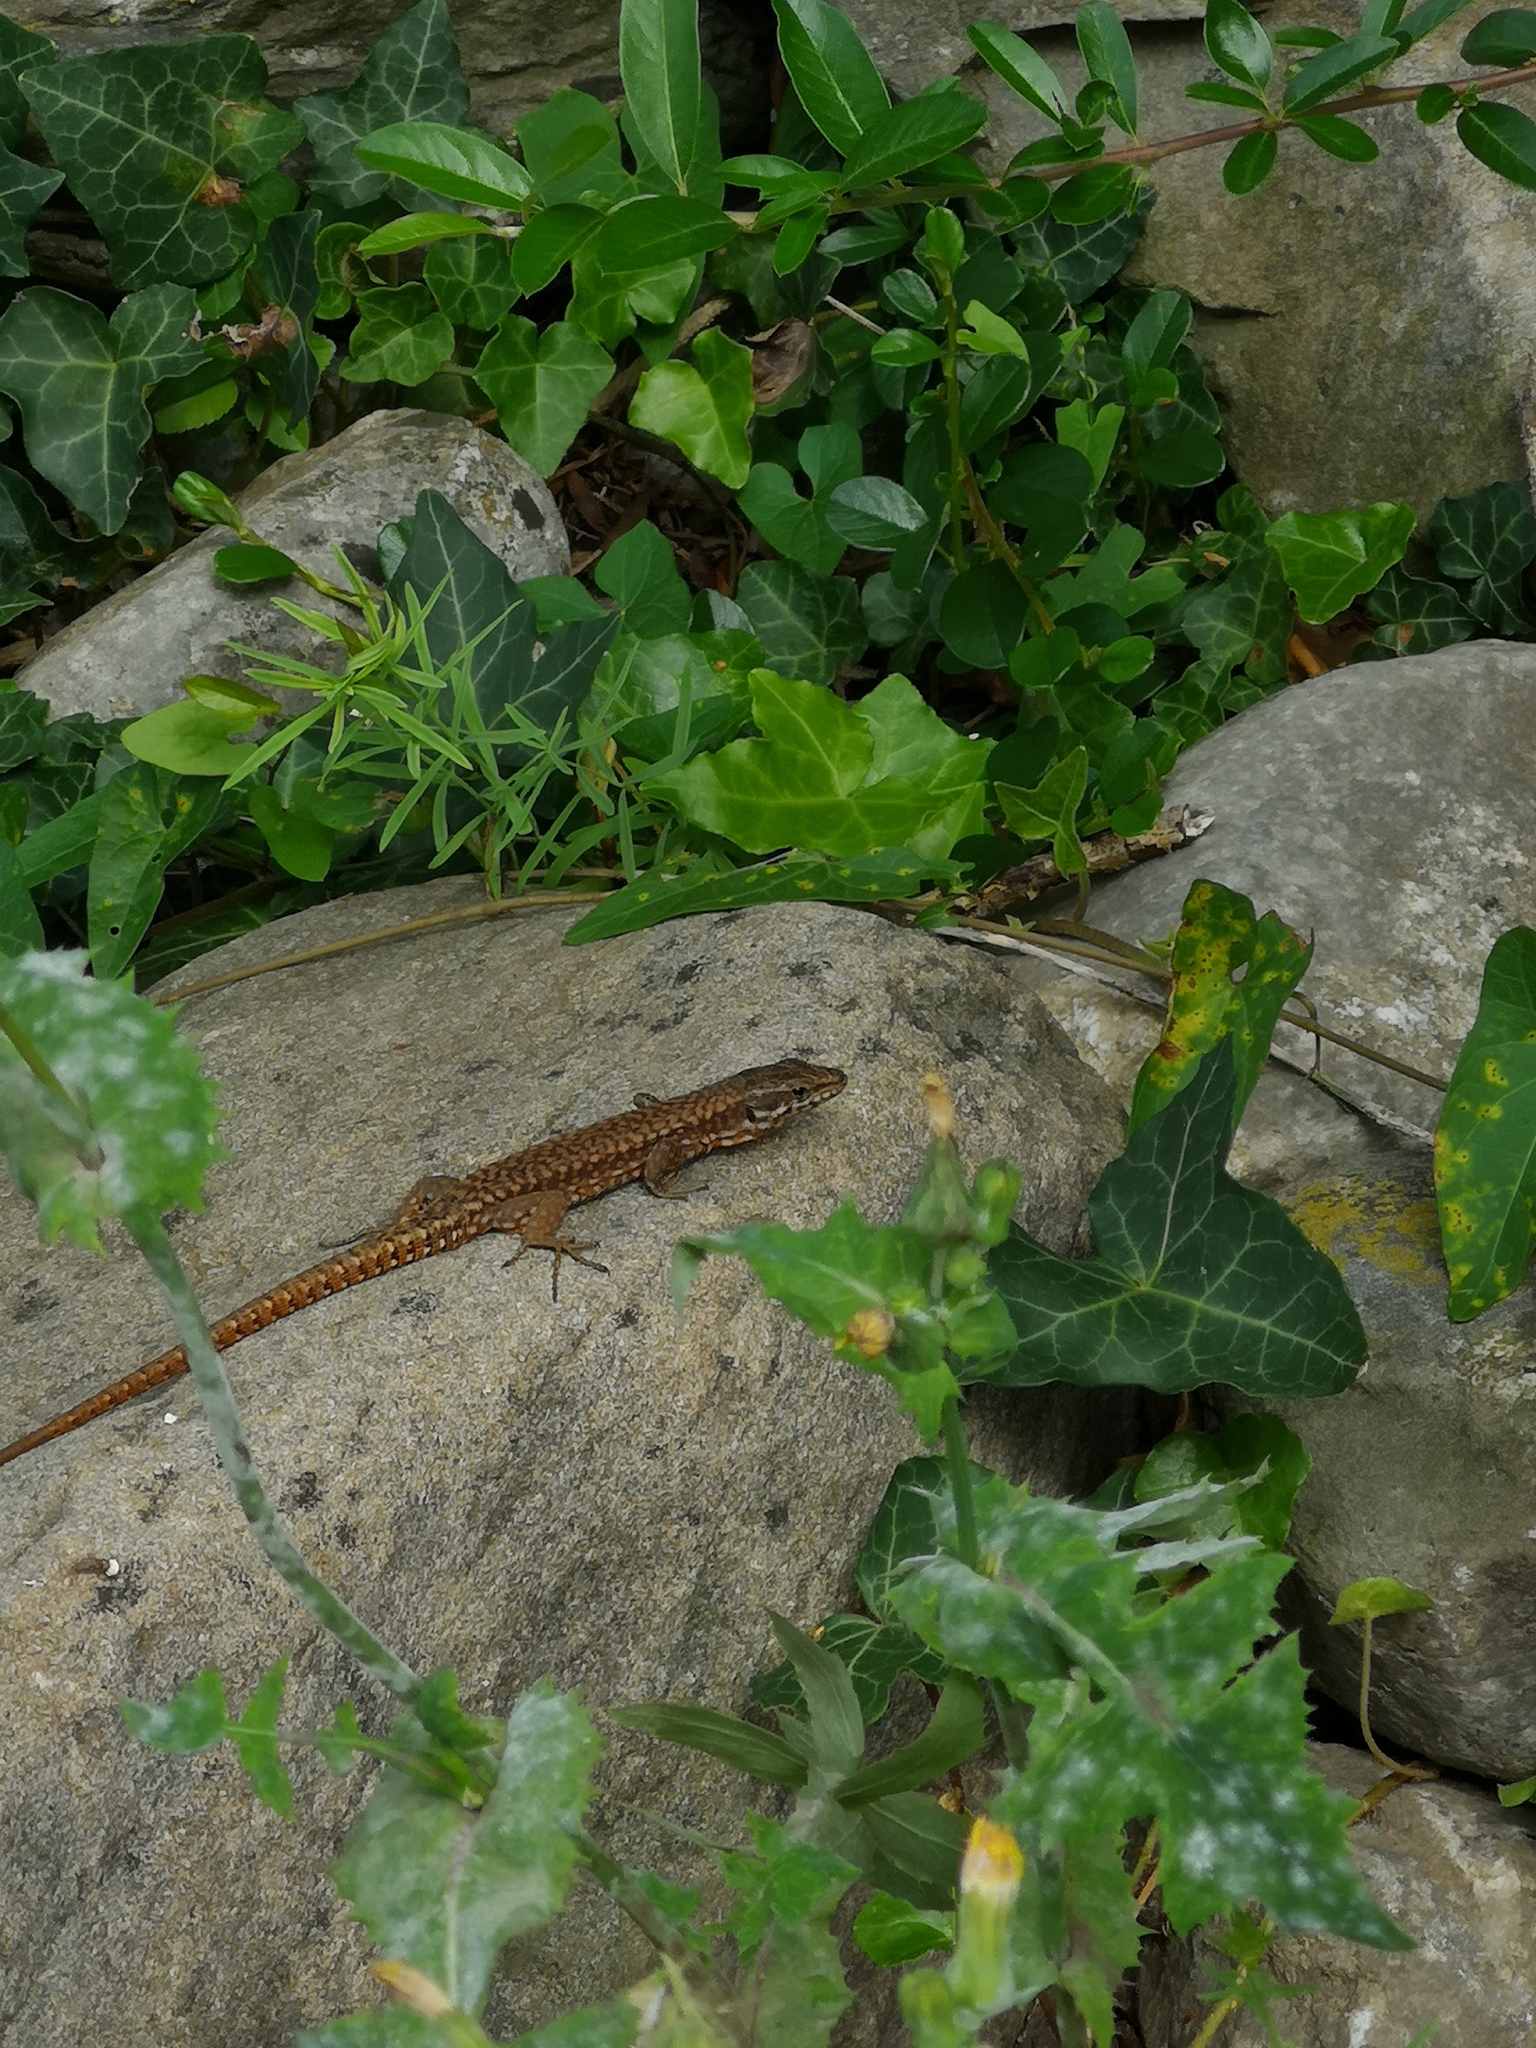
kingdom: Animalia
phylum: Chordata
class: Squamata
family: Lacertidae
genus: Podarcis
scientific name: Podarcis muralis
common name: Common wall lizard
